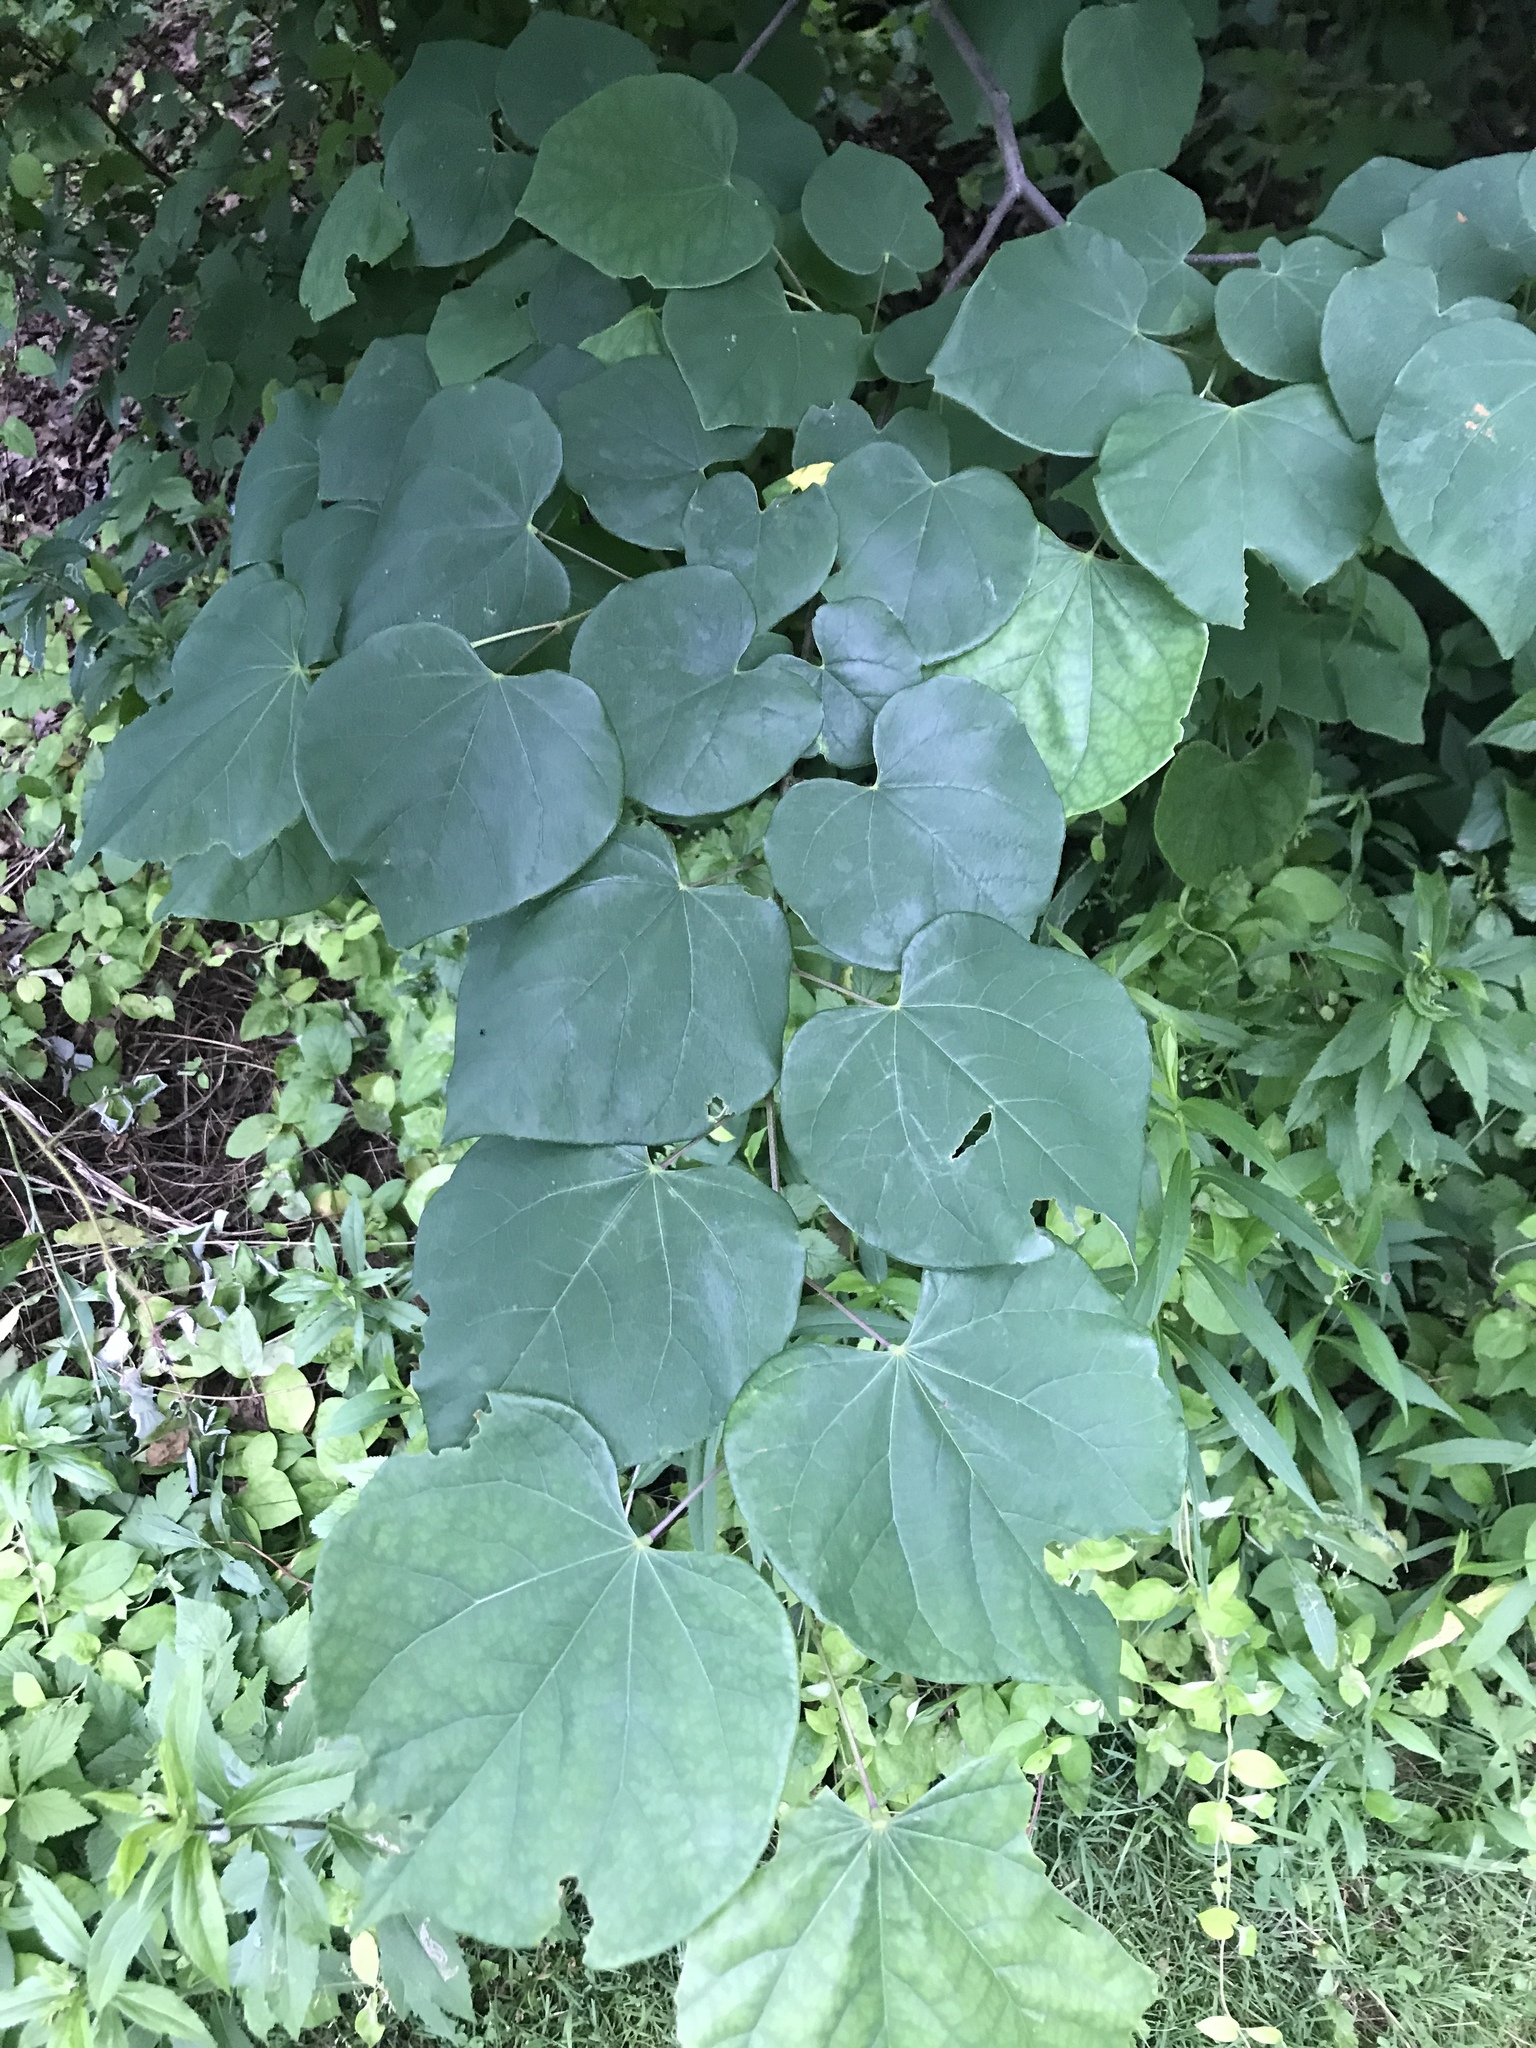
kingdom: Plantae
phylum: Tracheophyta
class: Magnoliopsida
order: Fabales
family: Fabaceae
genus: Cercis
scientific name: Cercis canadensis
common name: Eastern redbud
